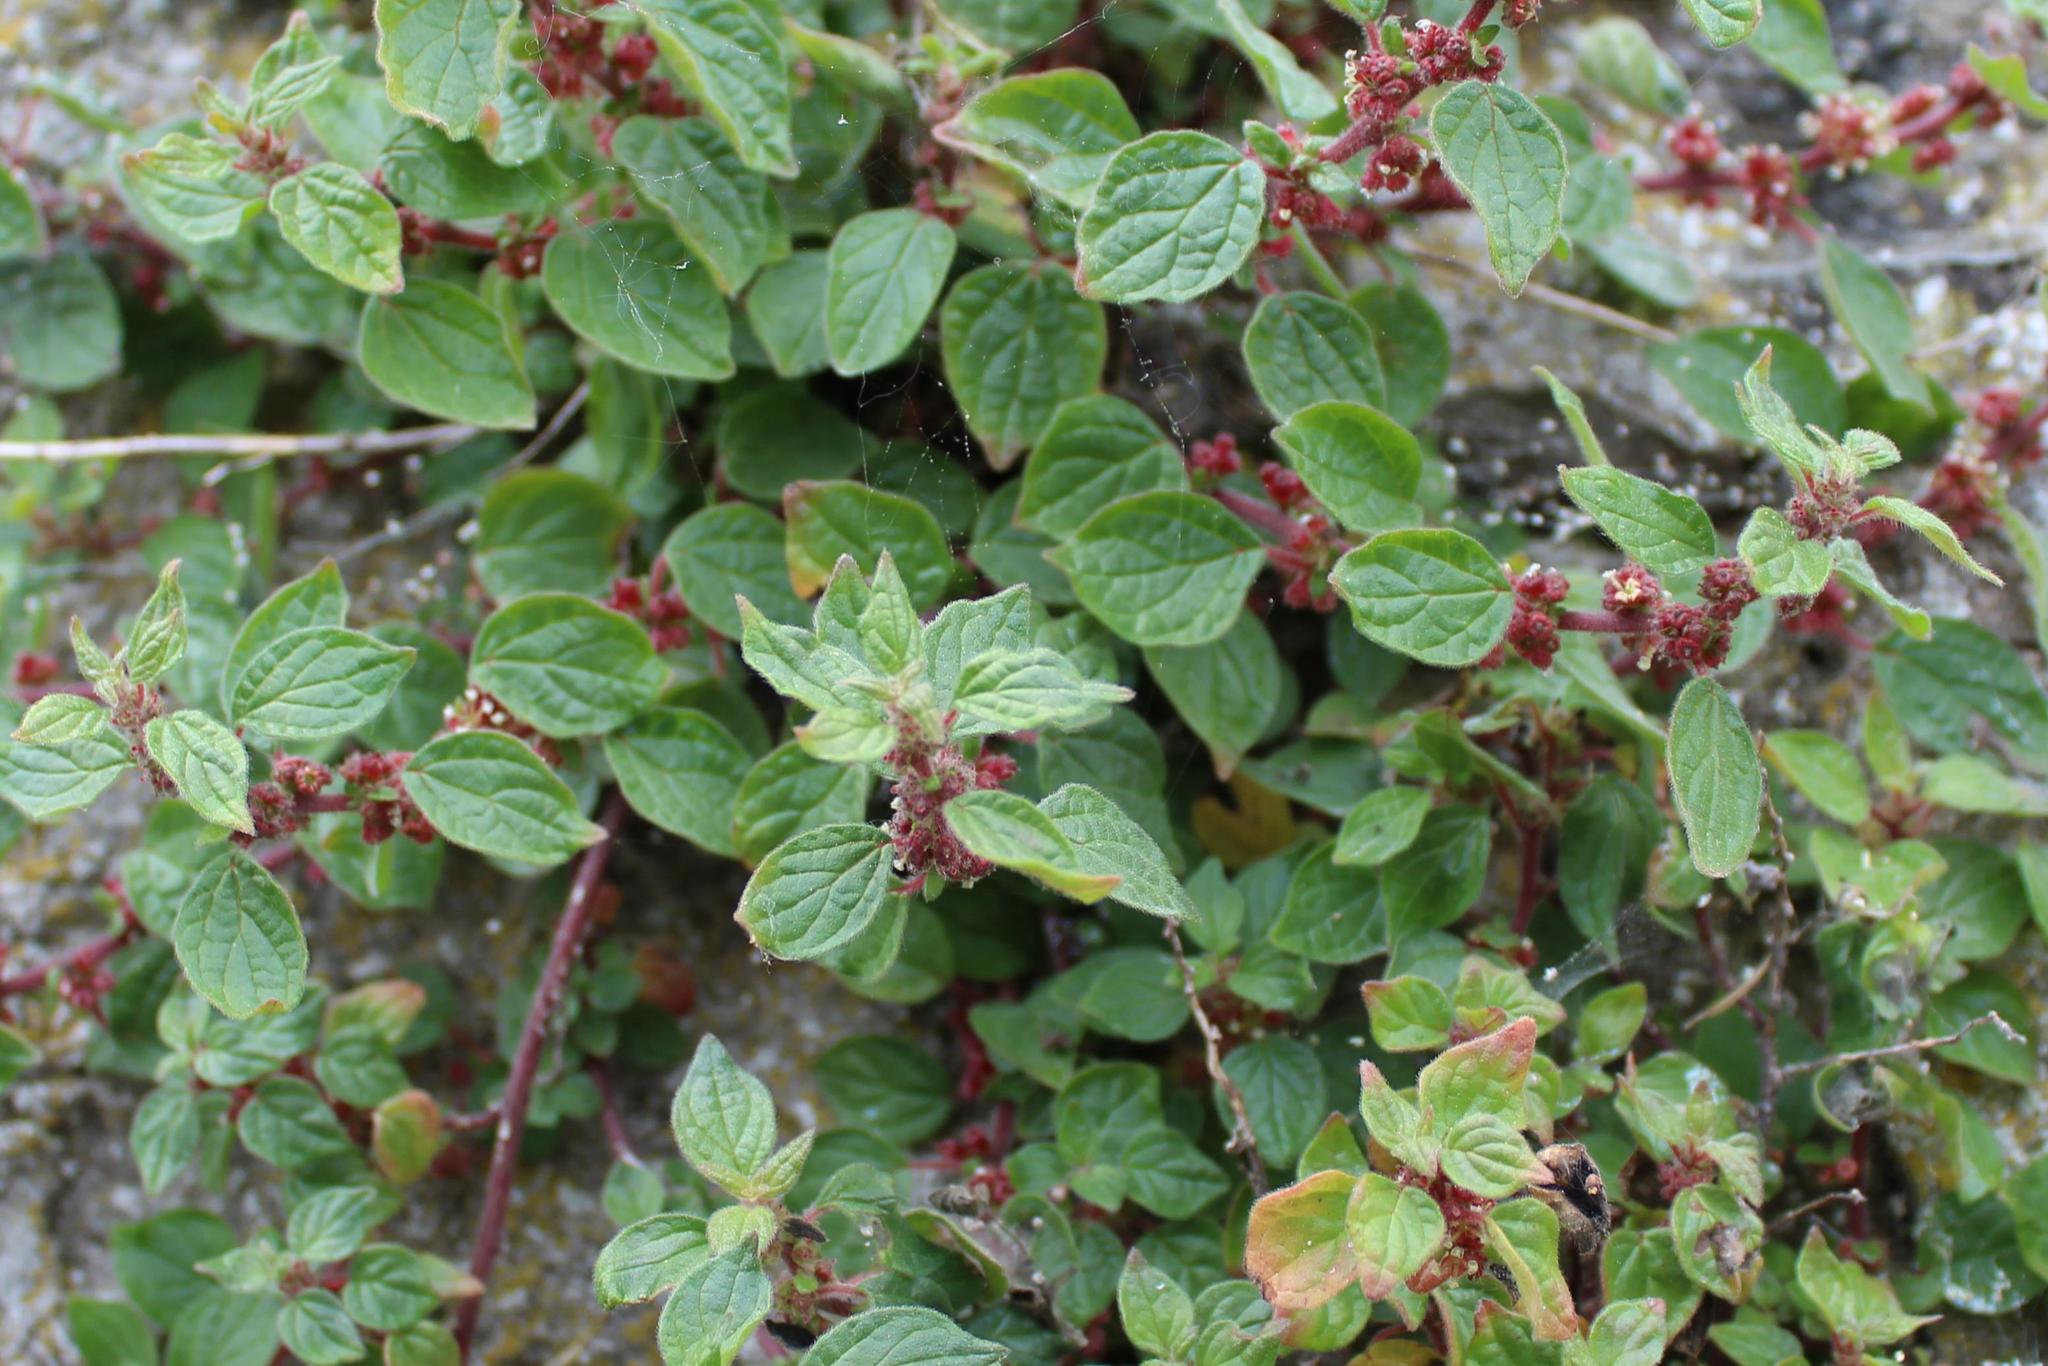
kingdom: Plantae
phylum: Tracheophyta
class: Magnoliopsida
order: Rosales
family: Urticaceae
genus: Parietaria
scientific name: Parietaria judaica
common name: Pellitory-of-the-wall
